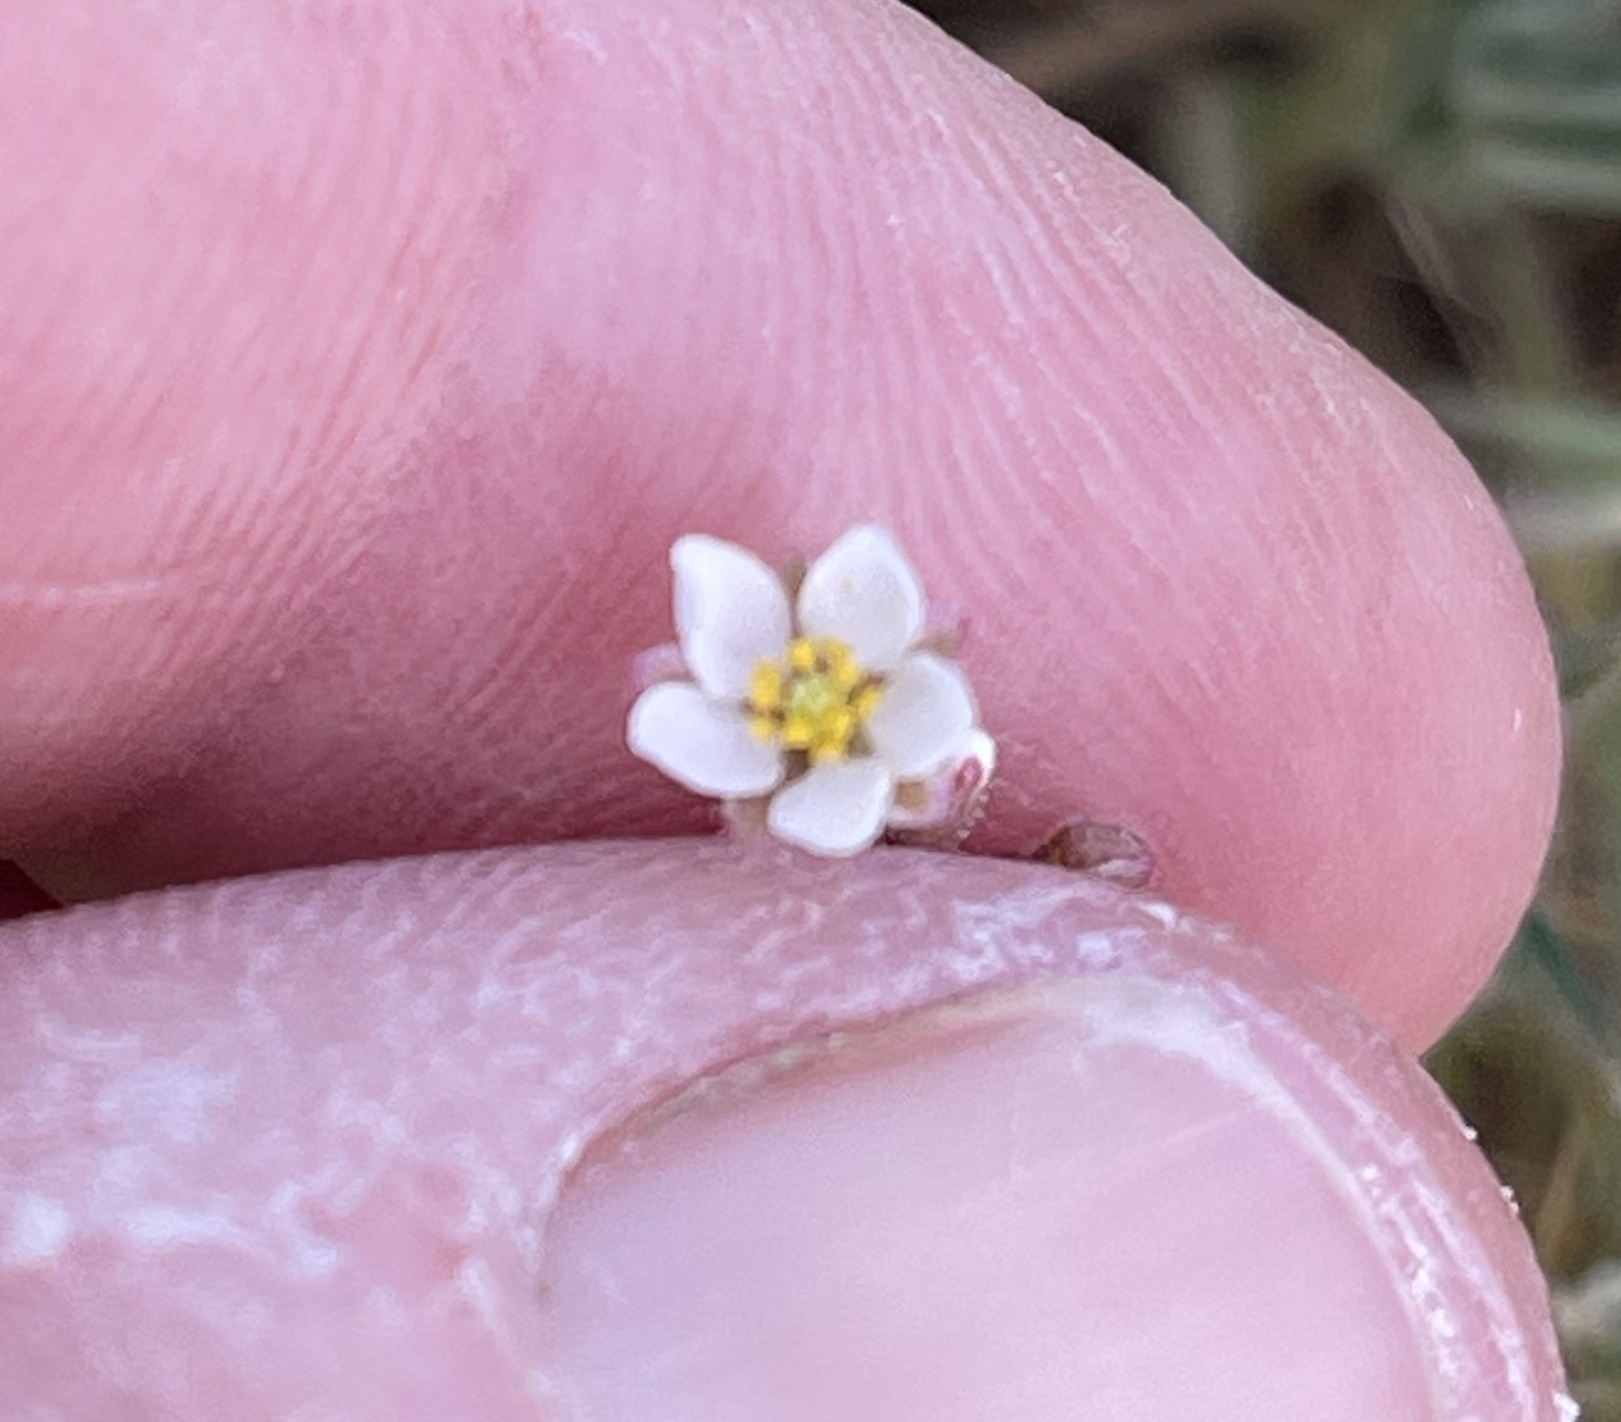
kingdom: Plantae
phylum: Tracheophyta
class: Magnoliopsida
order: Caryophyllales
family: Caryophyllaceae
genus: Spergula
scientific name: Spergula arvensis
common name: Corn spurrey
